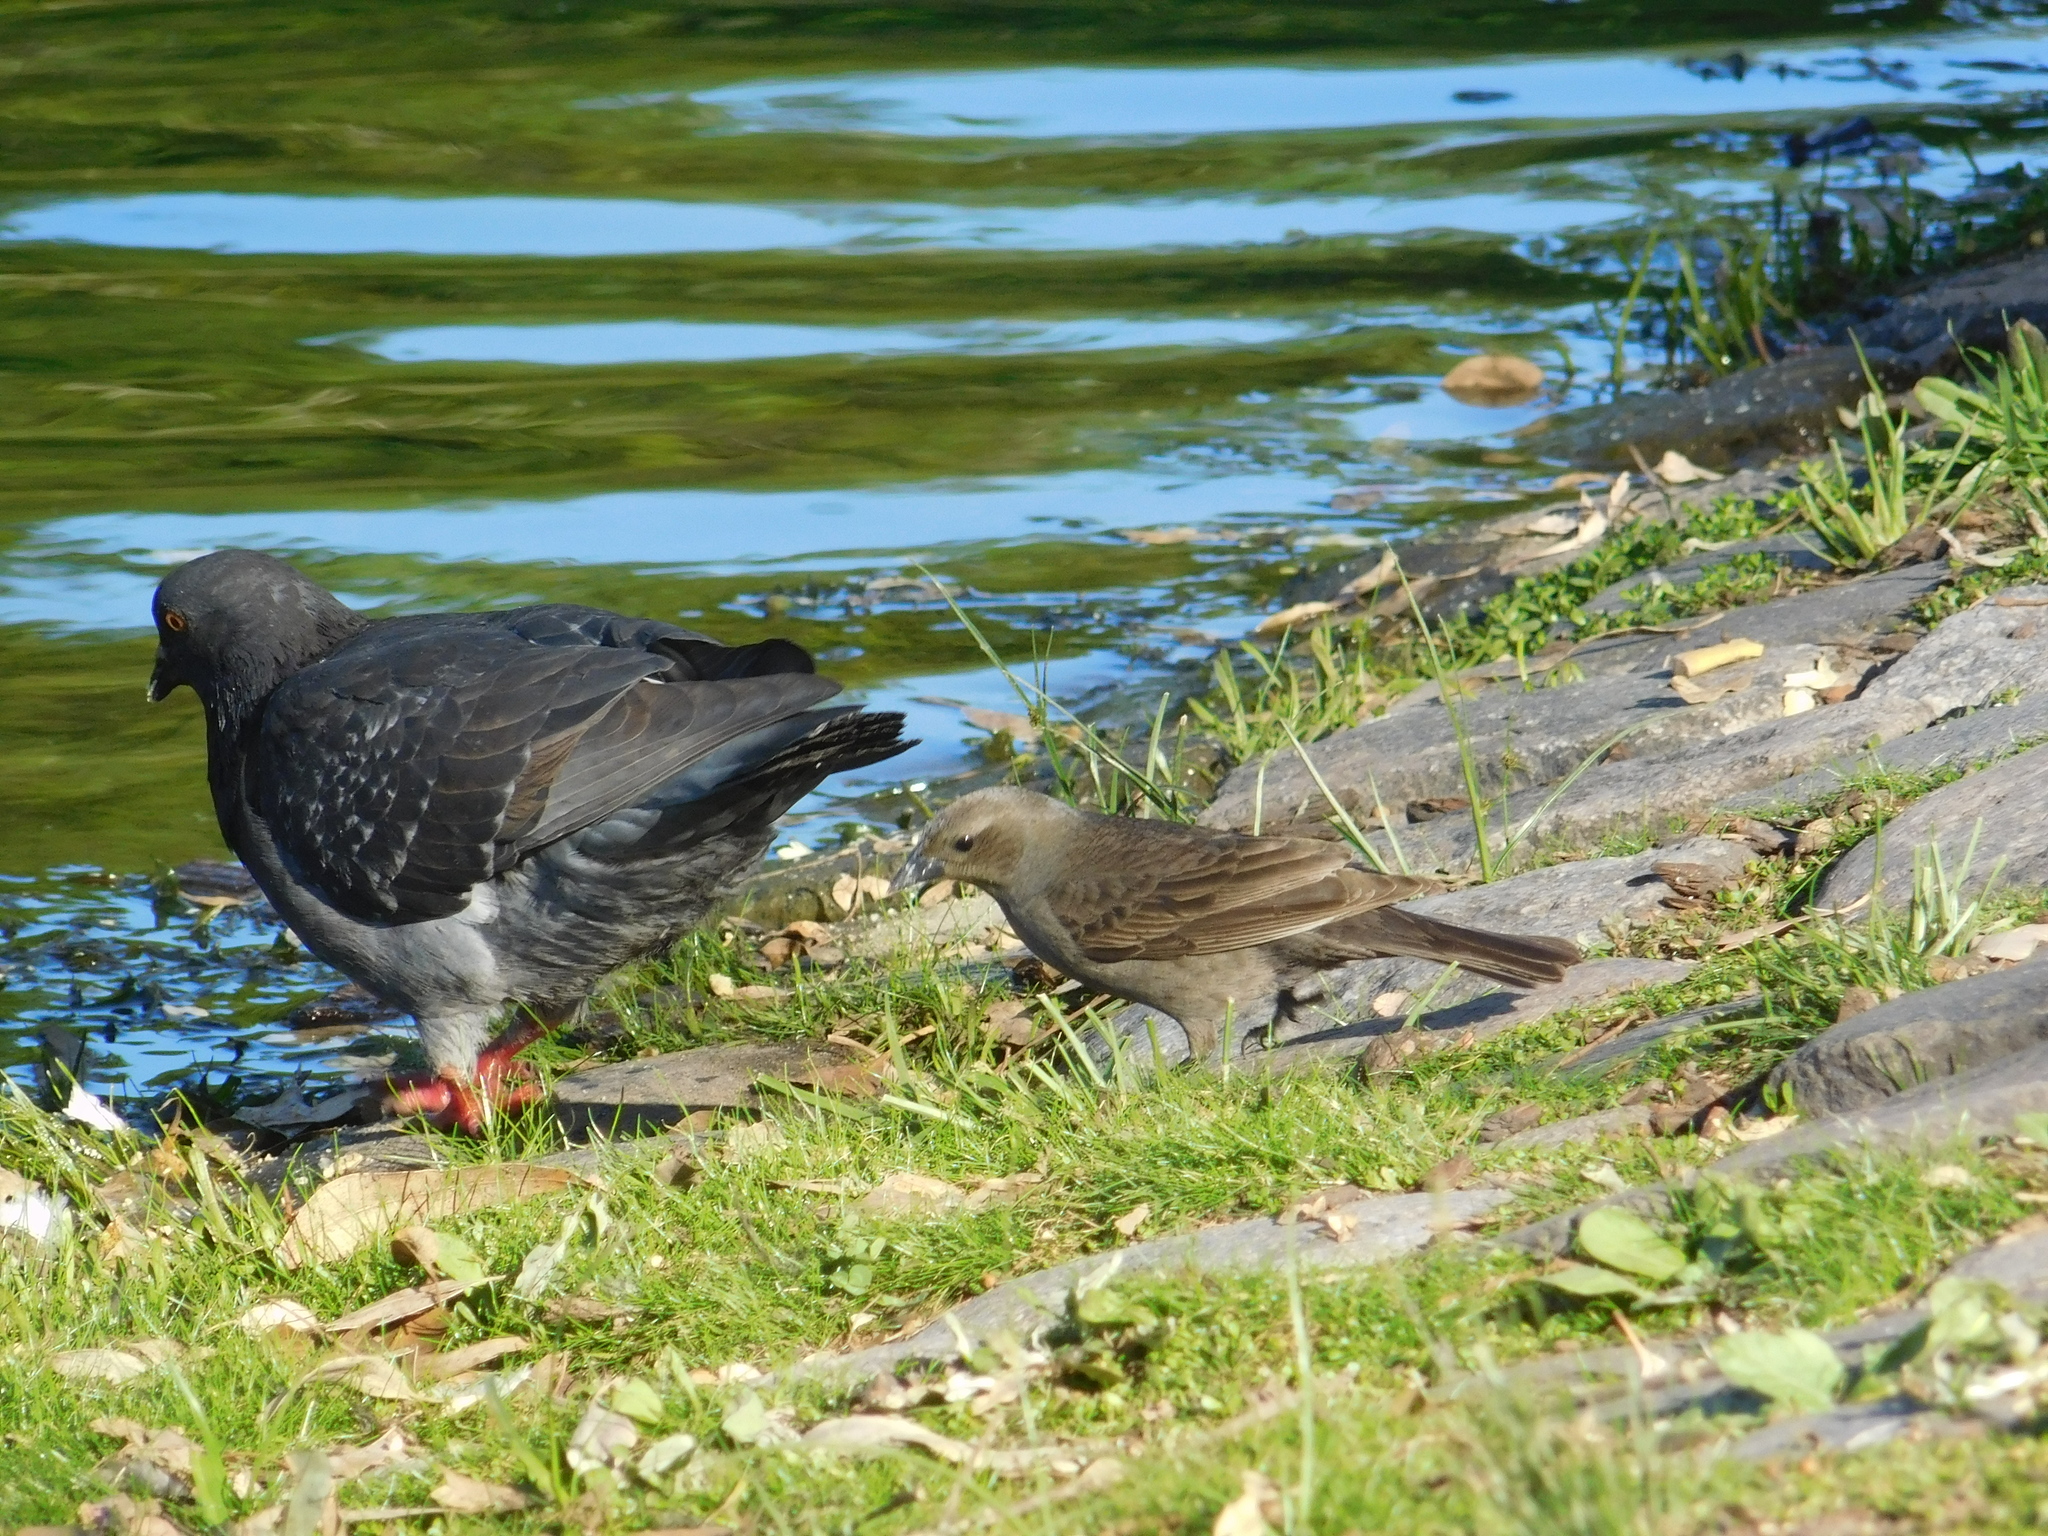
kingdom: Animalia
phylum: Chordata
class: Aves
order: Passeriformes
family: Icteridae
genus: Molothrus
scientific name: Molothrus bonariensis
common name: Shiny cowbird
